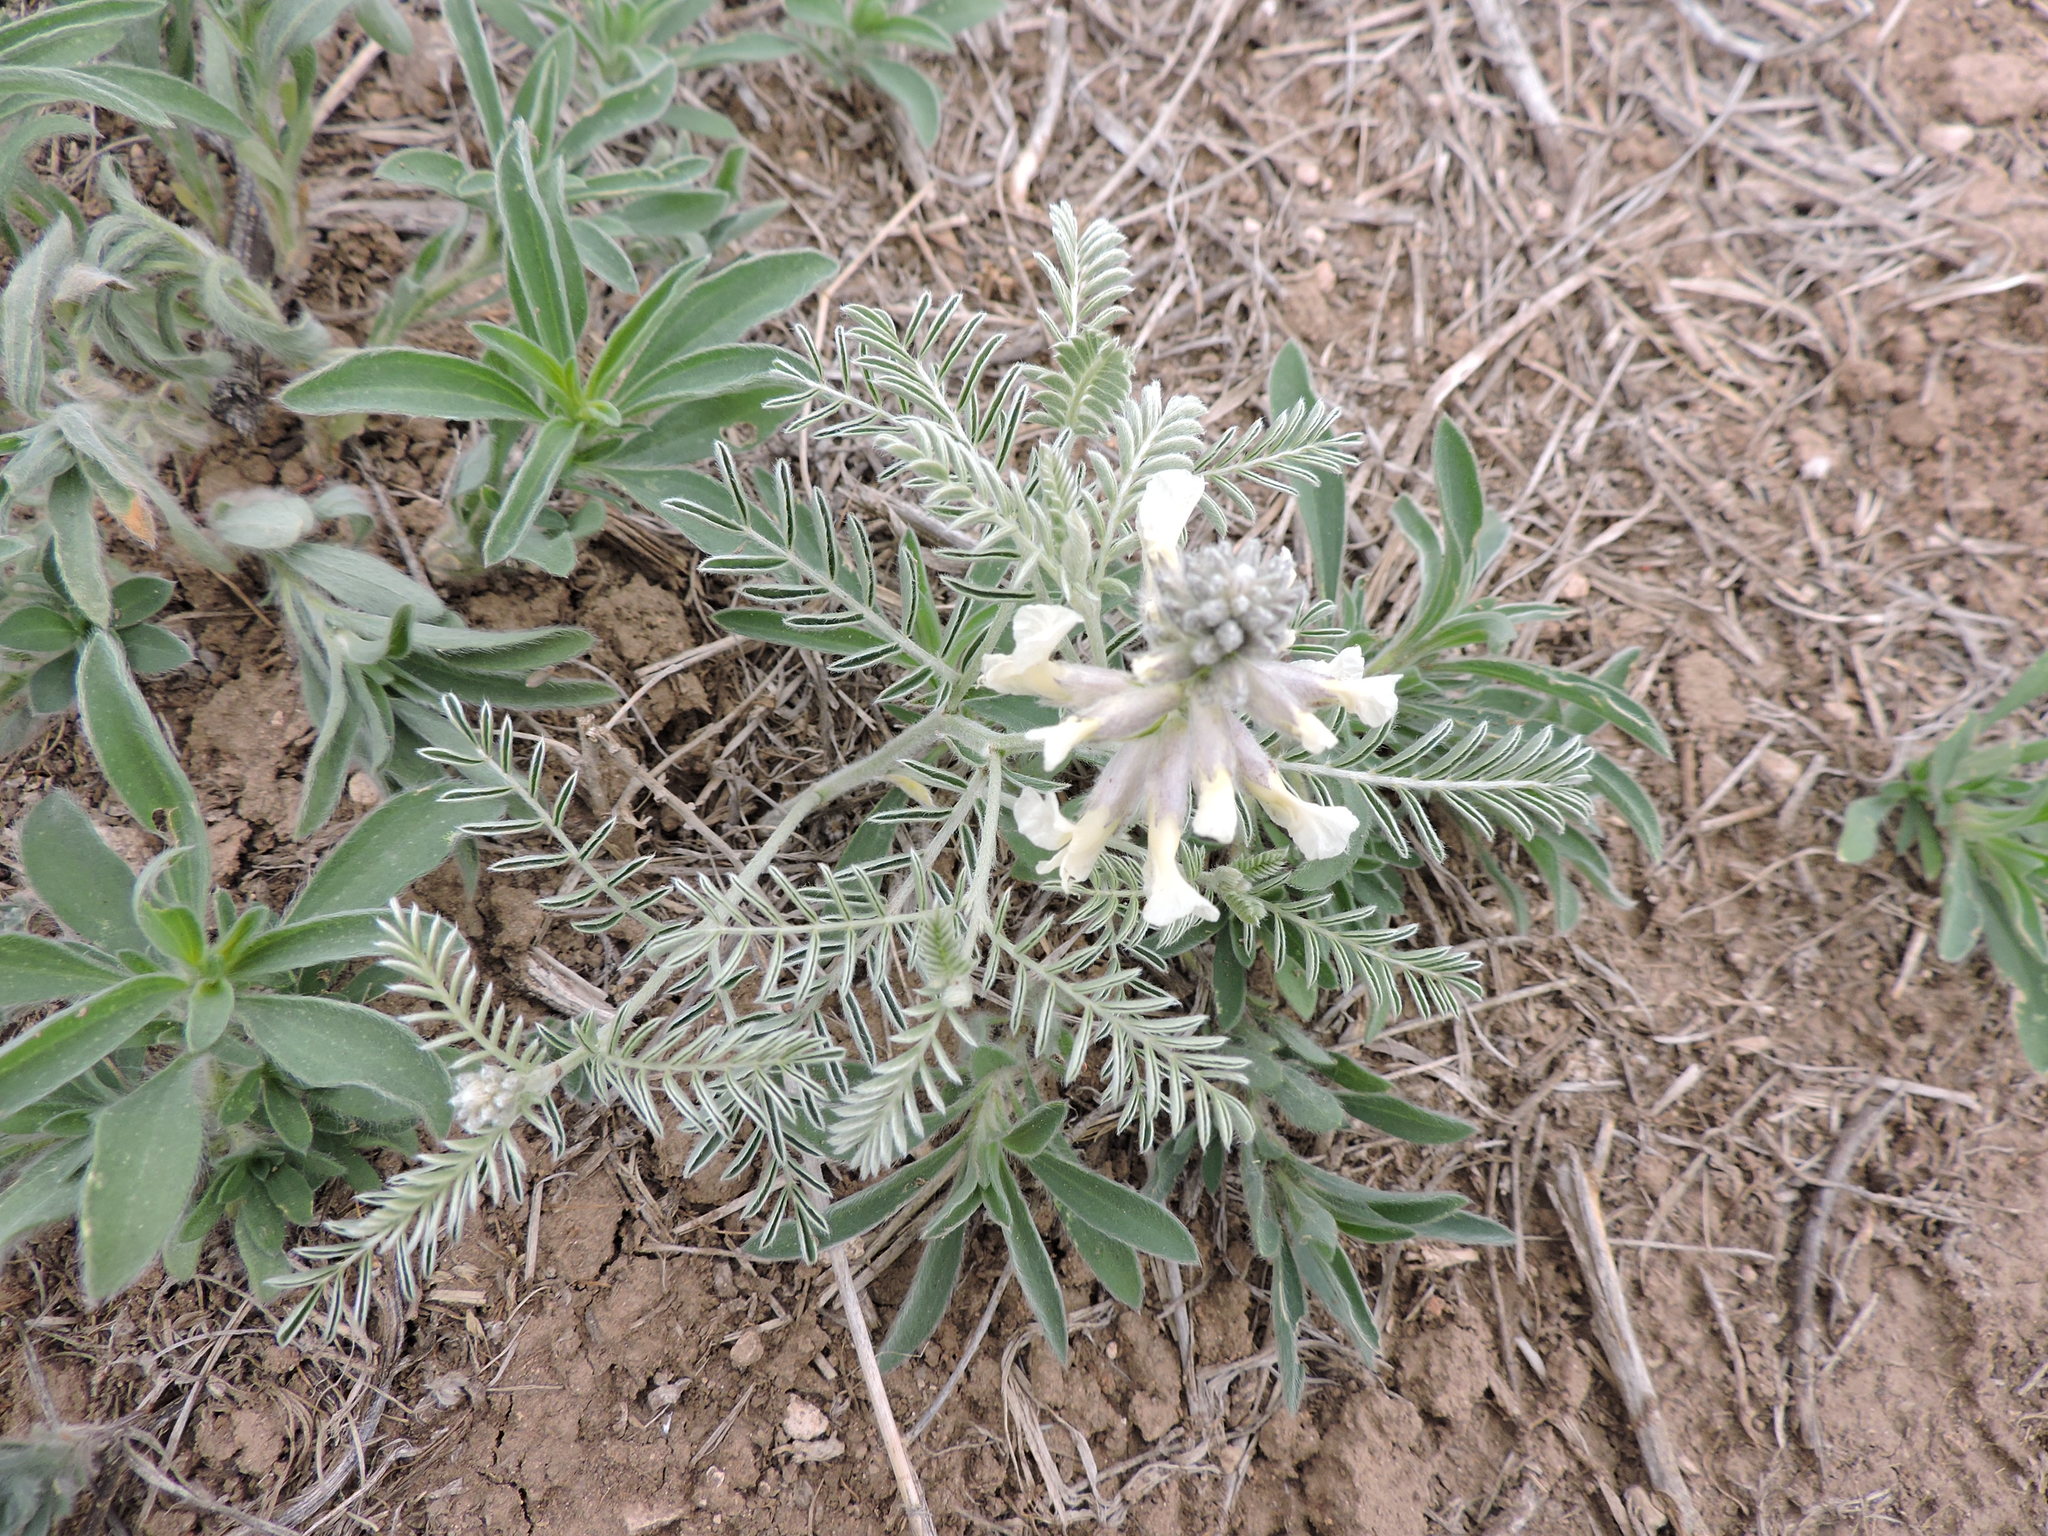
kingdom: Plantae
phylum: Tracheophyta
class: Magnoliopsida
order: Fabales
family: Fabaceae
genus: Sophora
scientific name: Sophora nuttalliana
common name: Silky sophora
